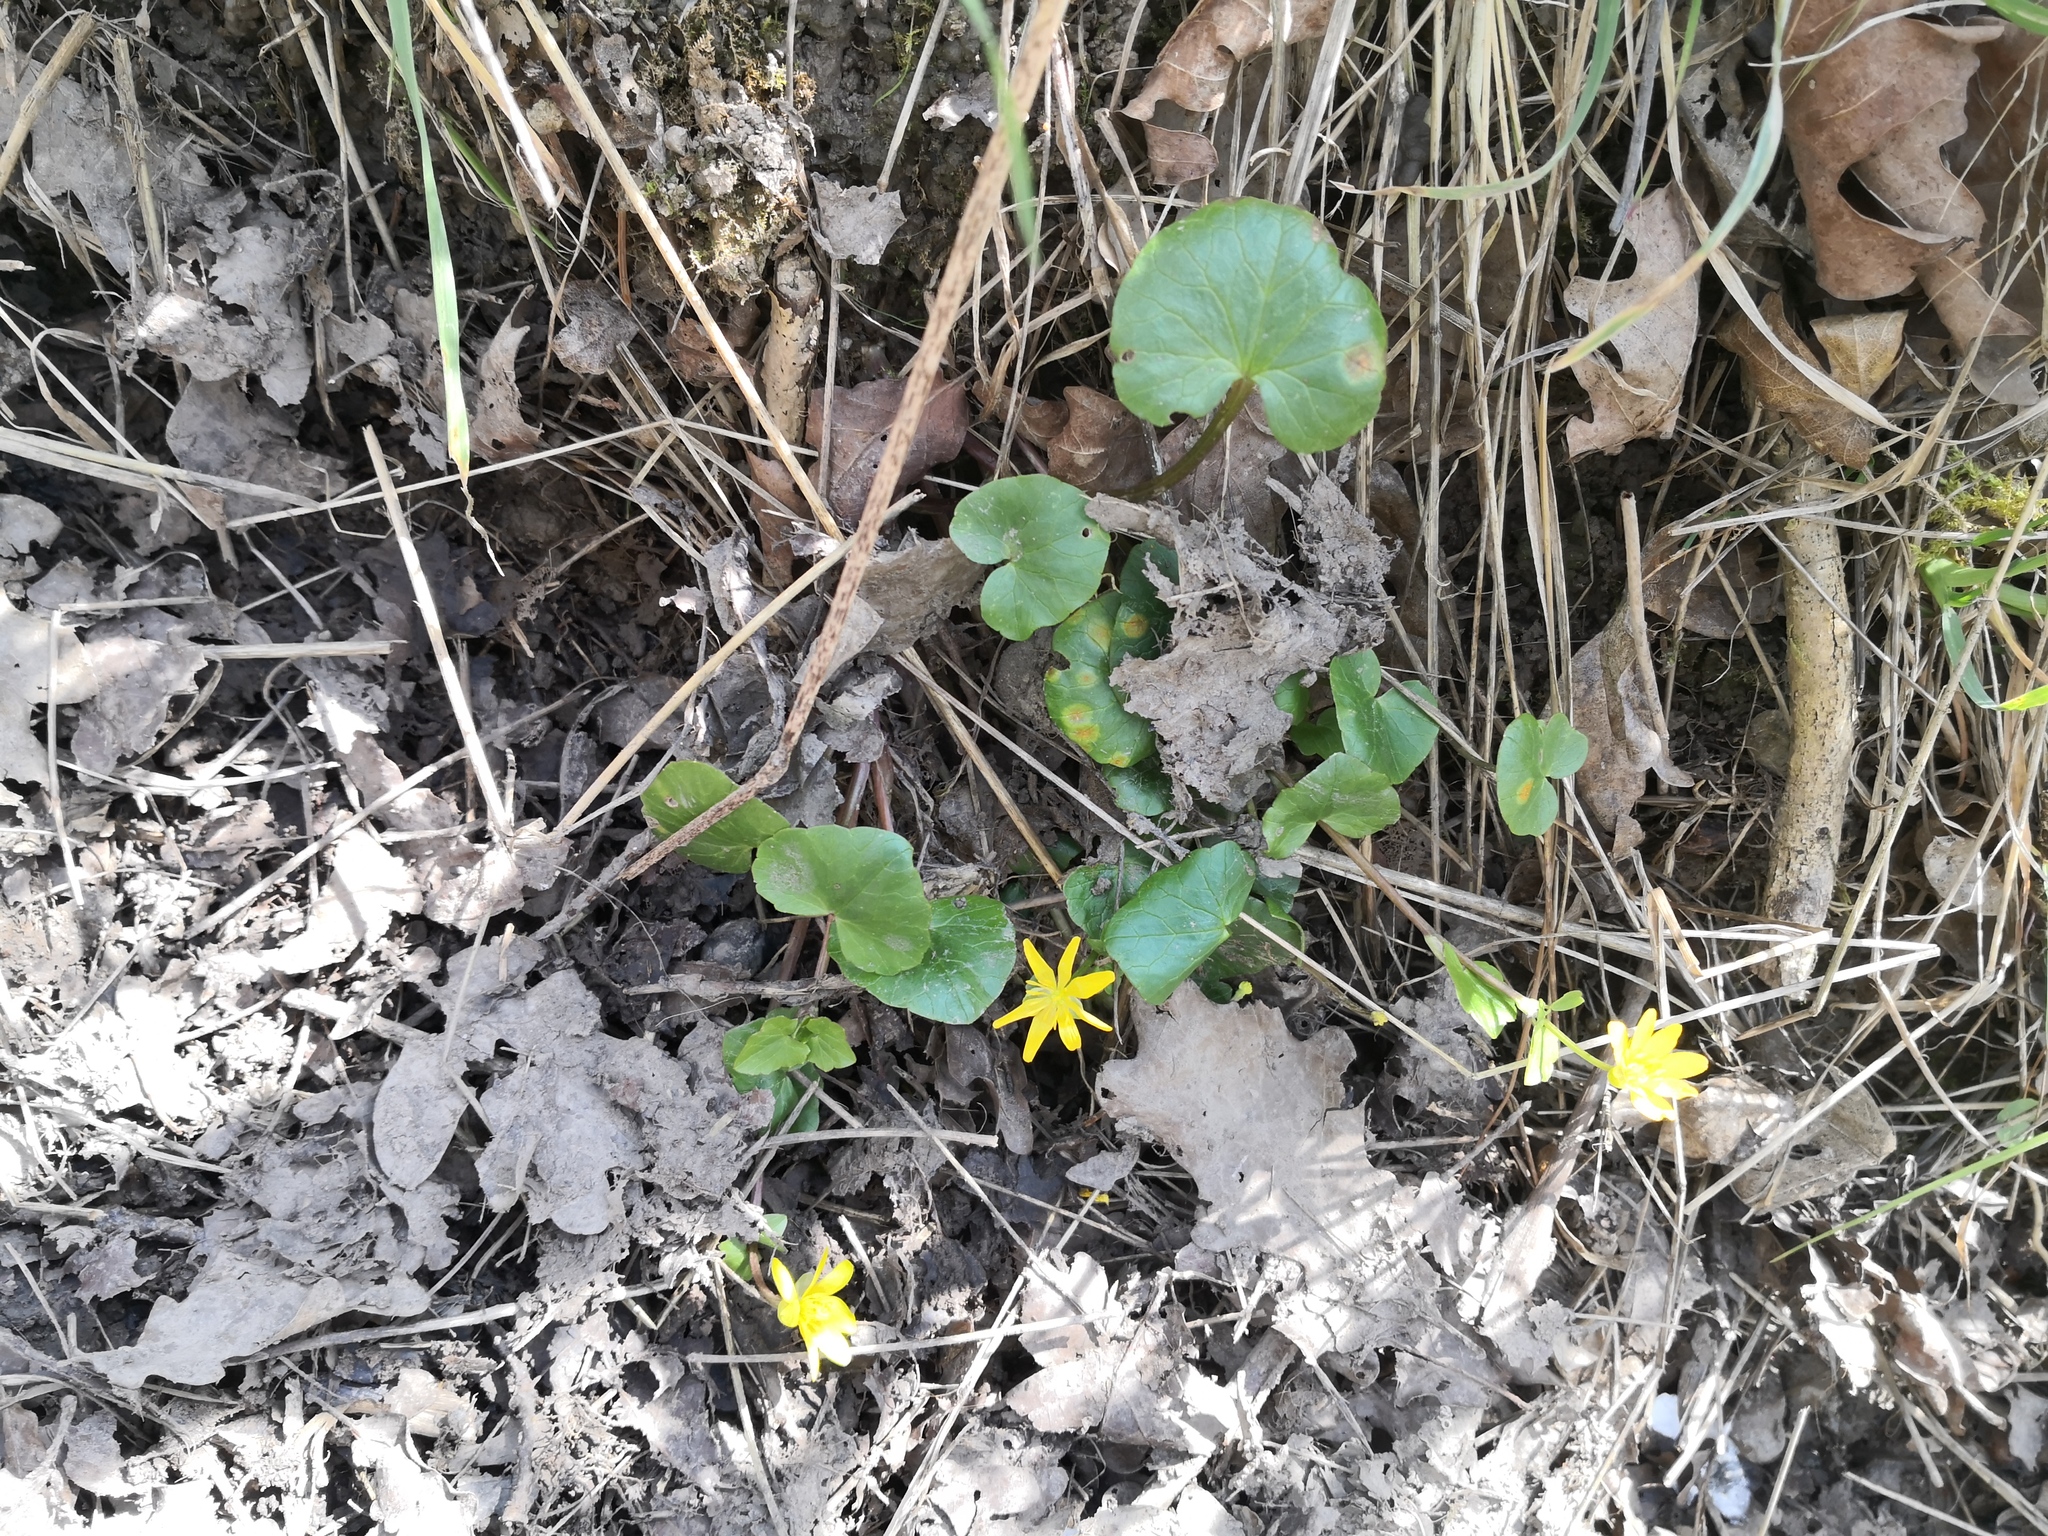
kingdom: Plantae
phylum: Tracheophyta
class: Magnoliopsida
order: Ranunculales
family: Ranunculaceae
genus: Ficaria
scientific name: Ficaria verna
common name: Lesser celandine
